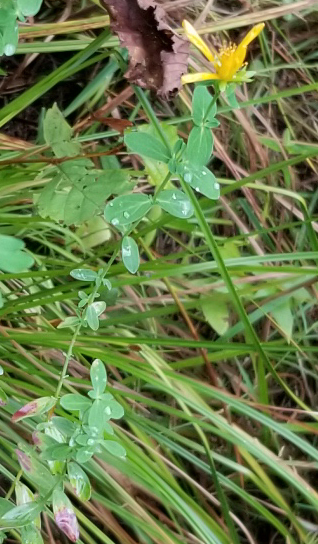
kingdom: Plantae
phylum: Tracheophyta
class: Magnoliopsida
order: Malpighiales
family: Hypericaceae
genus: Hypericum
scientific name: Hypericum perforatum
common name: Common st. johnswort
